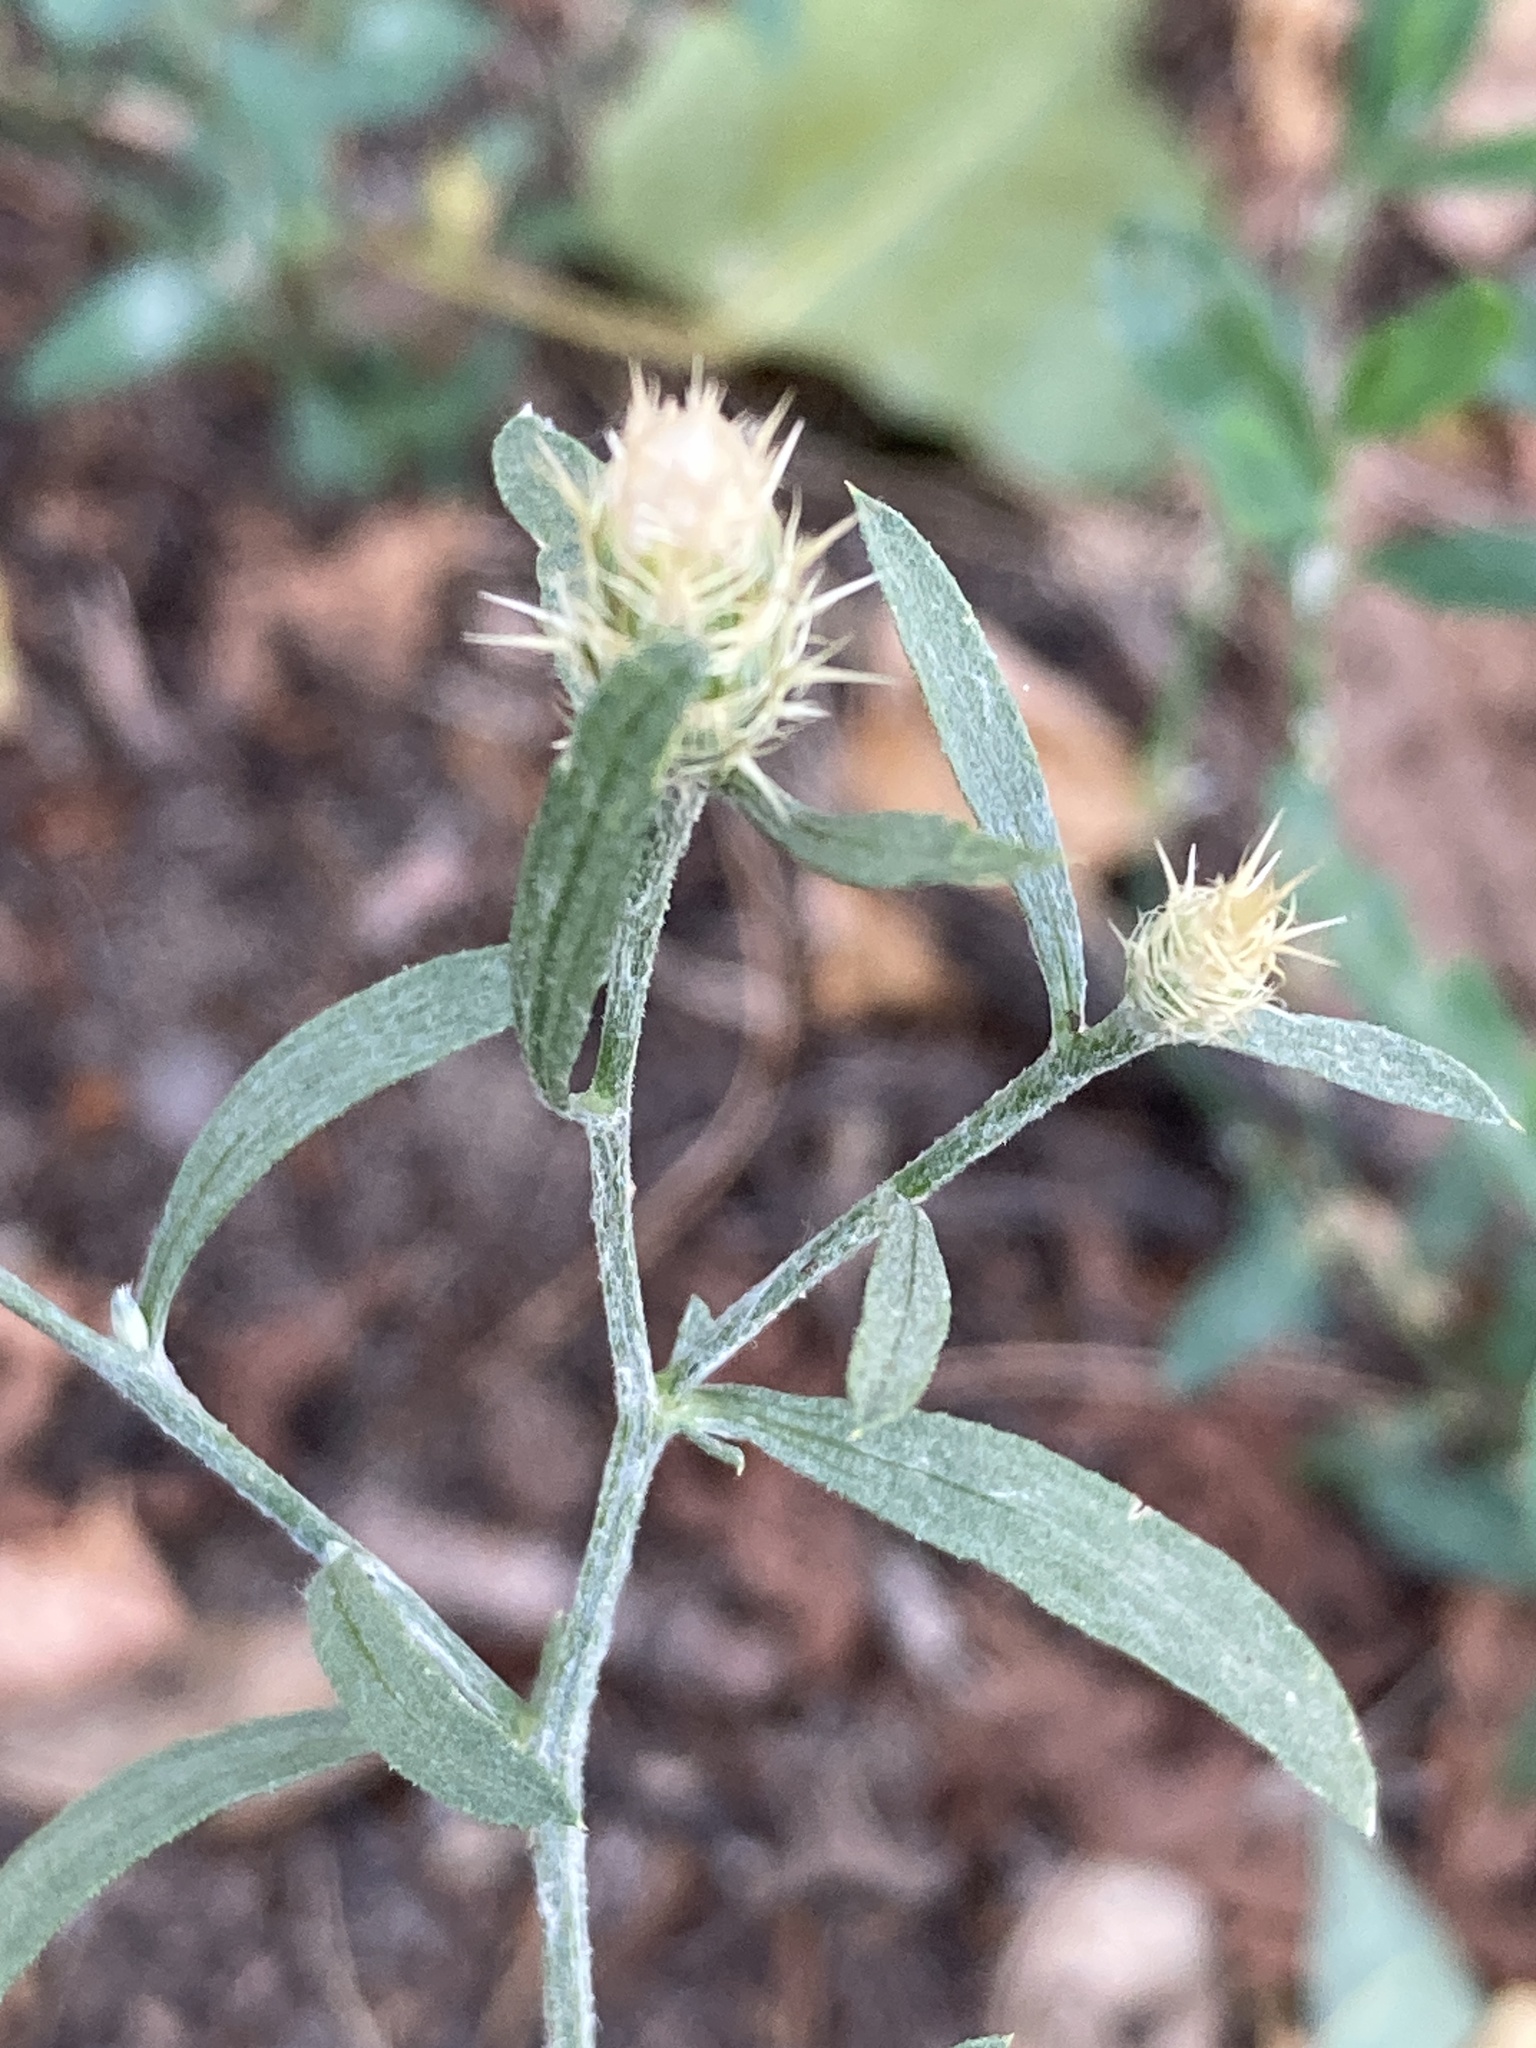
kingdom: Plantae
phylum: Tracheophyta
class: Magnoliopsida
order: Asterales
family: Asteraceae
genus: Centaurea
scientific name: Centaurea diffusa
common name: Diffuse knapweed
